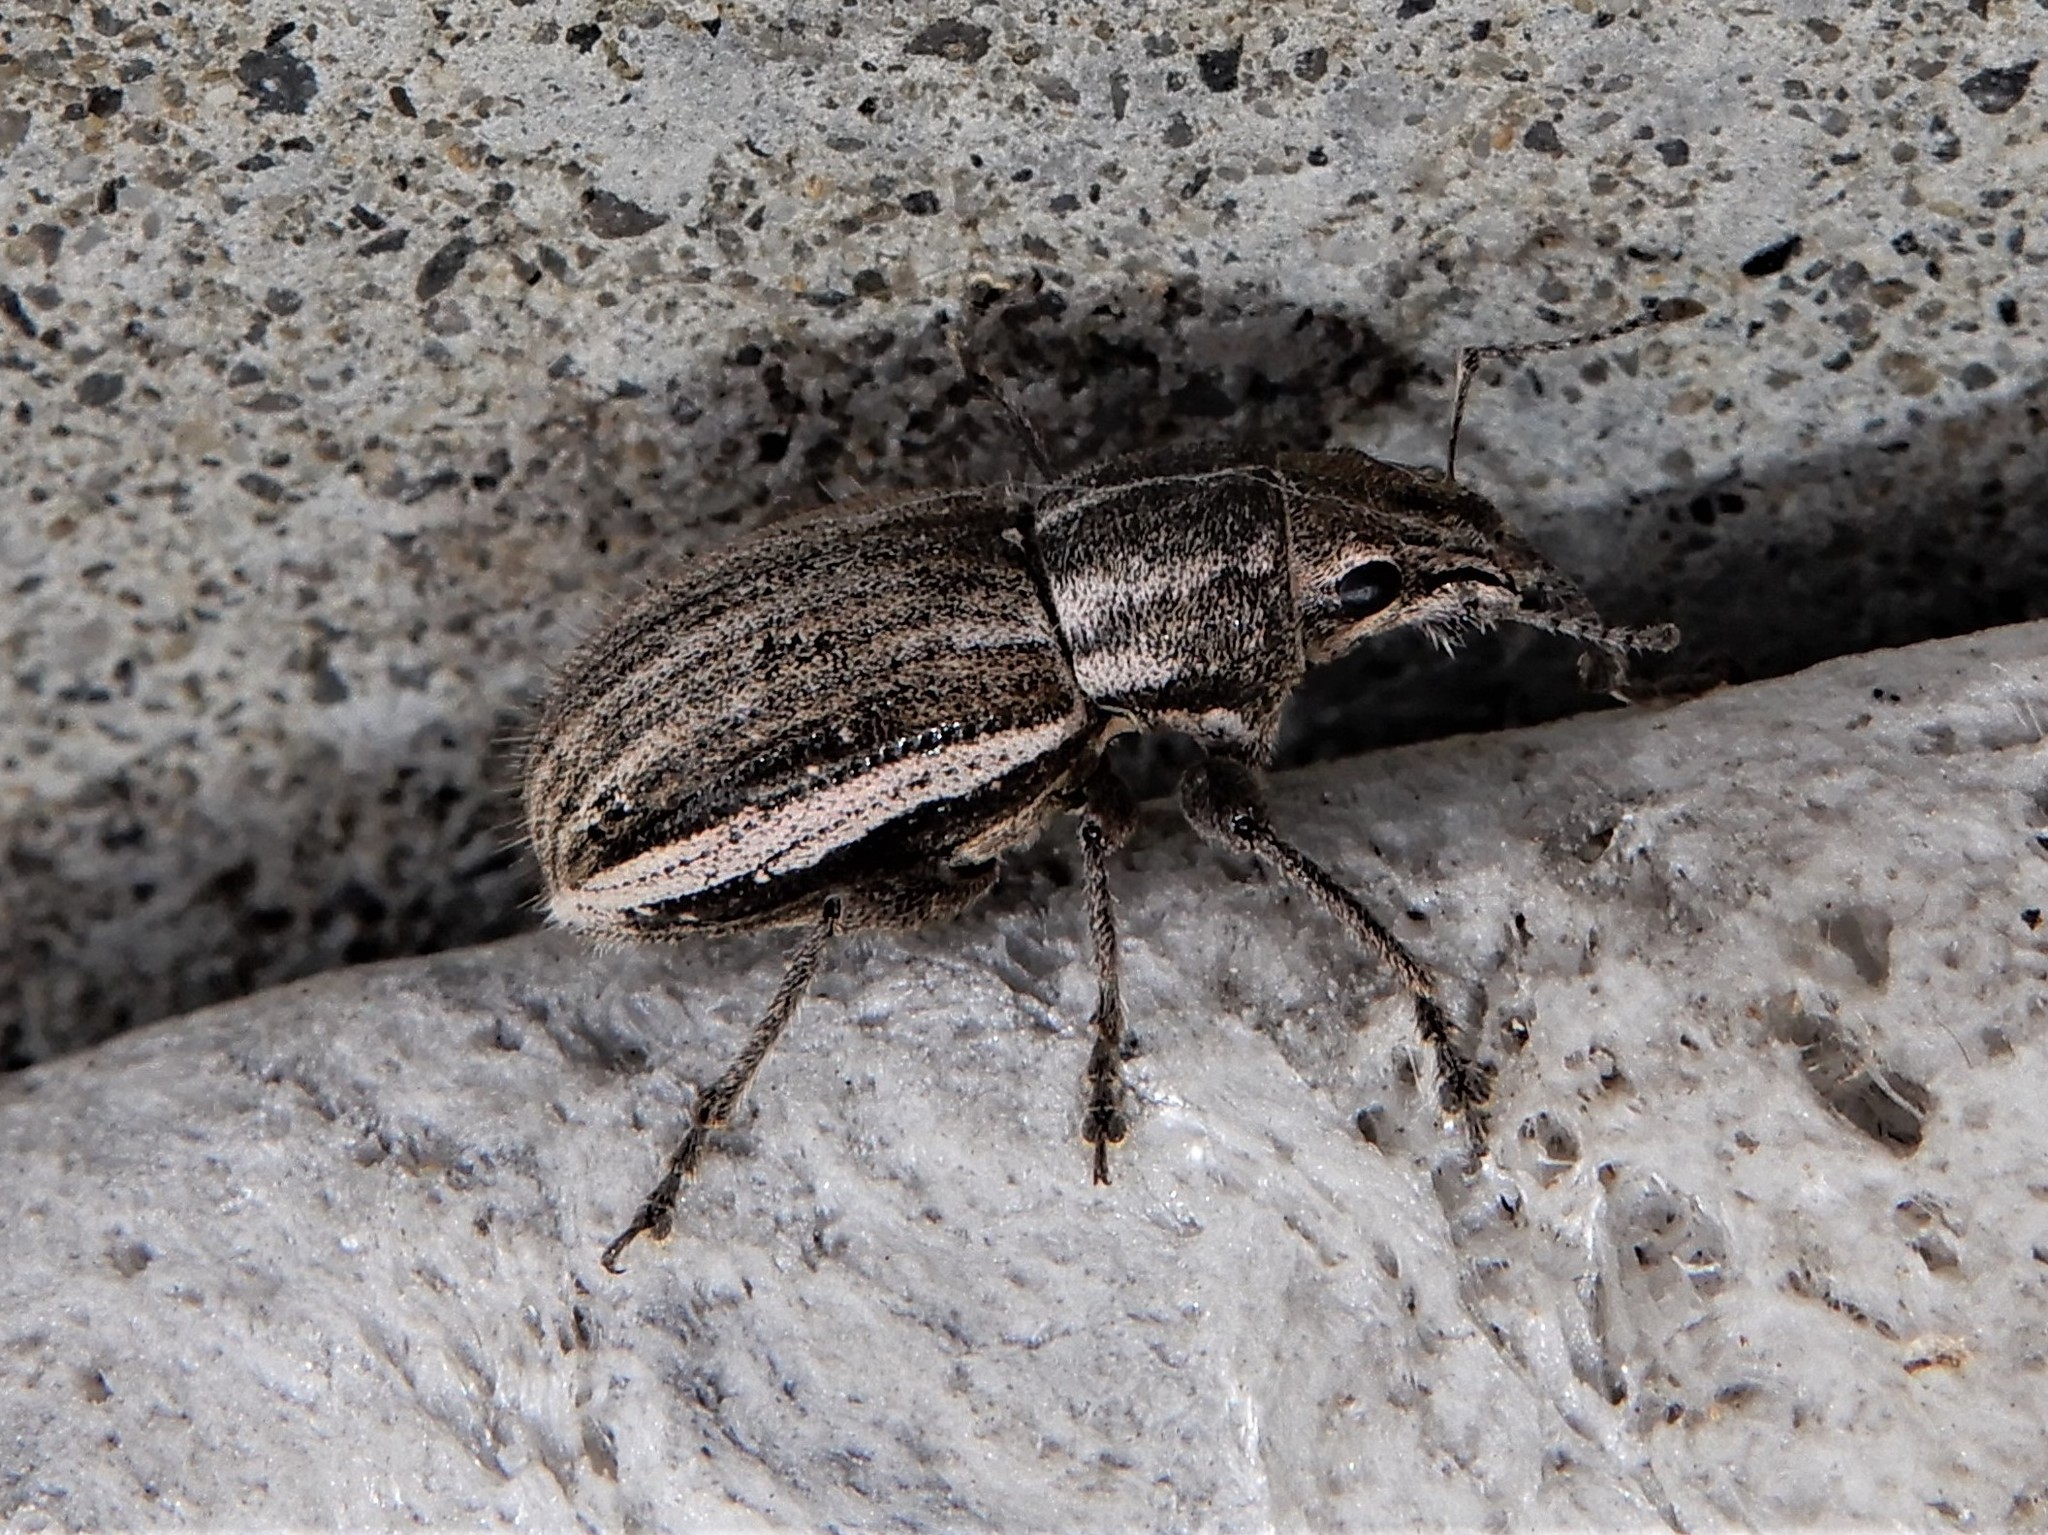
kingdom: Animalia
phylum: Arthropoda
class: Insecta
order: Coleoptera
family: Curculionidae
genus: Naupactus
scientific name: Naupactus leucoloma
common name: Whitefringed beetle
